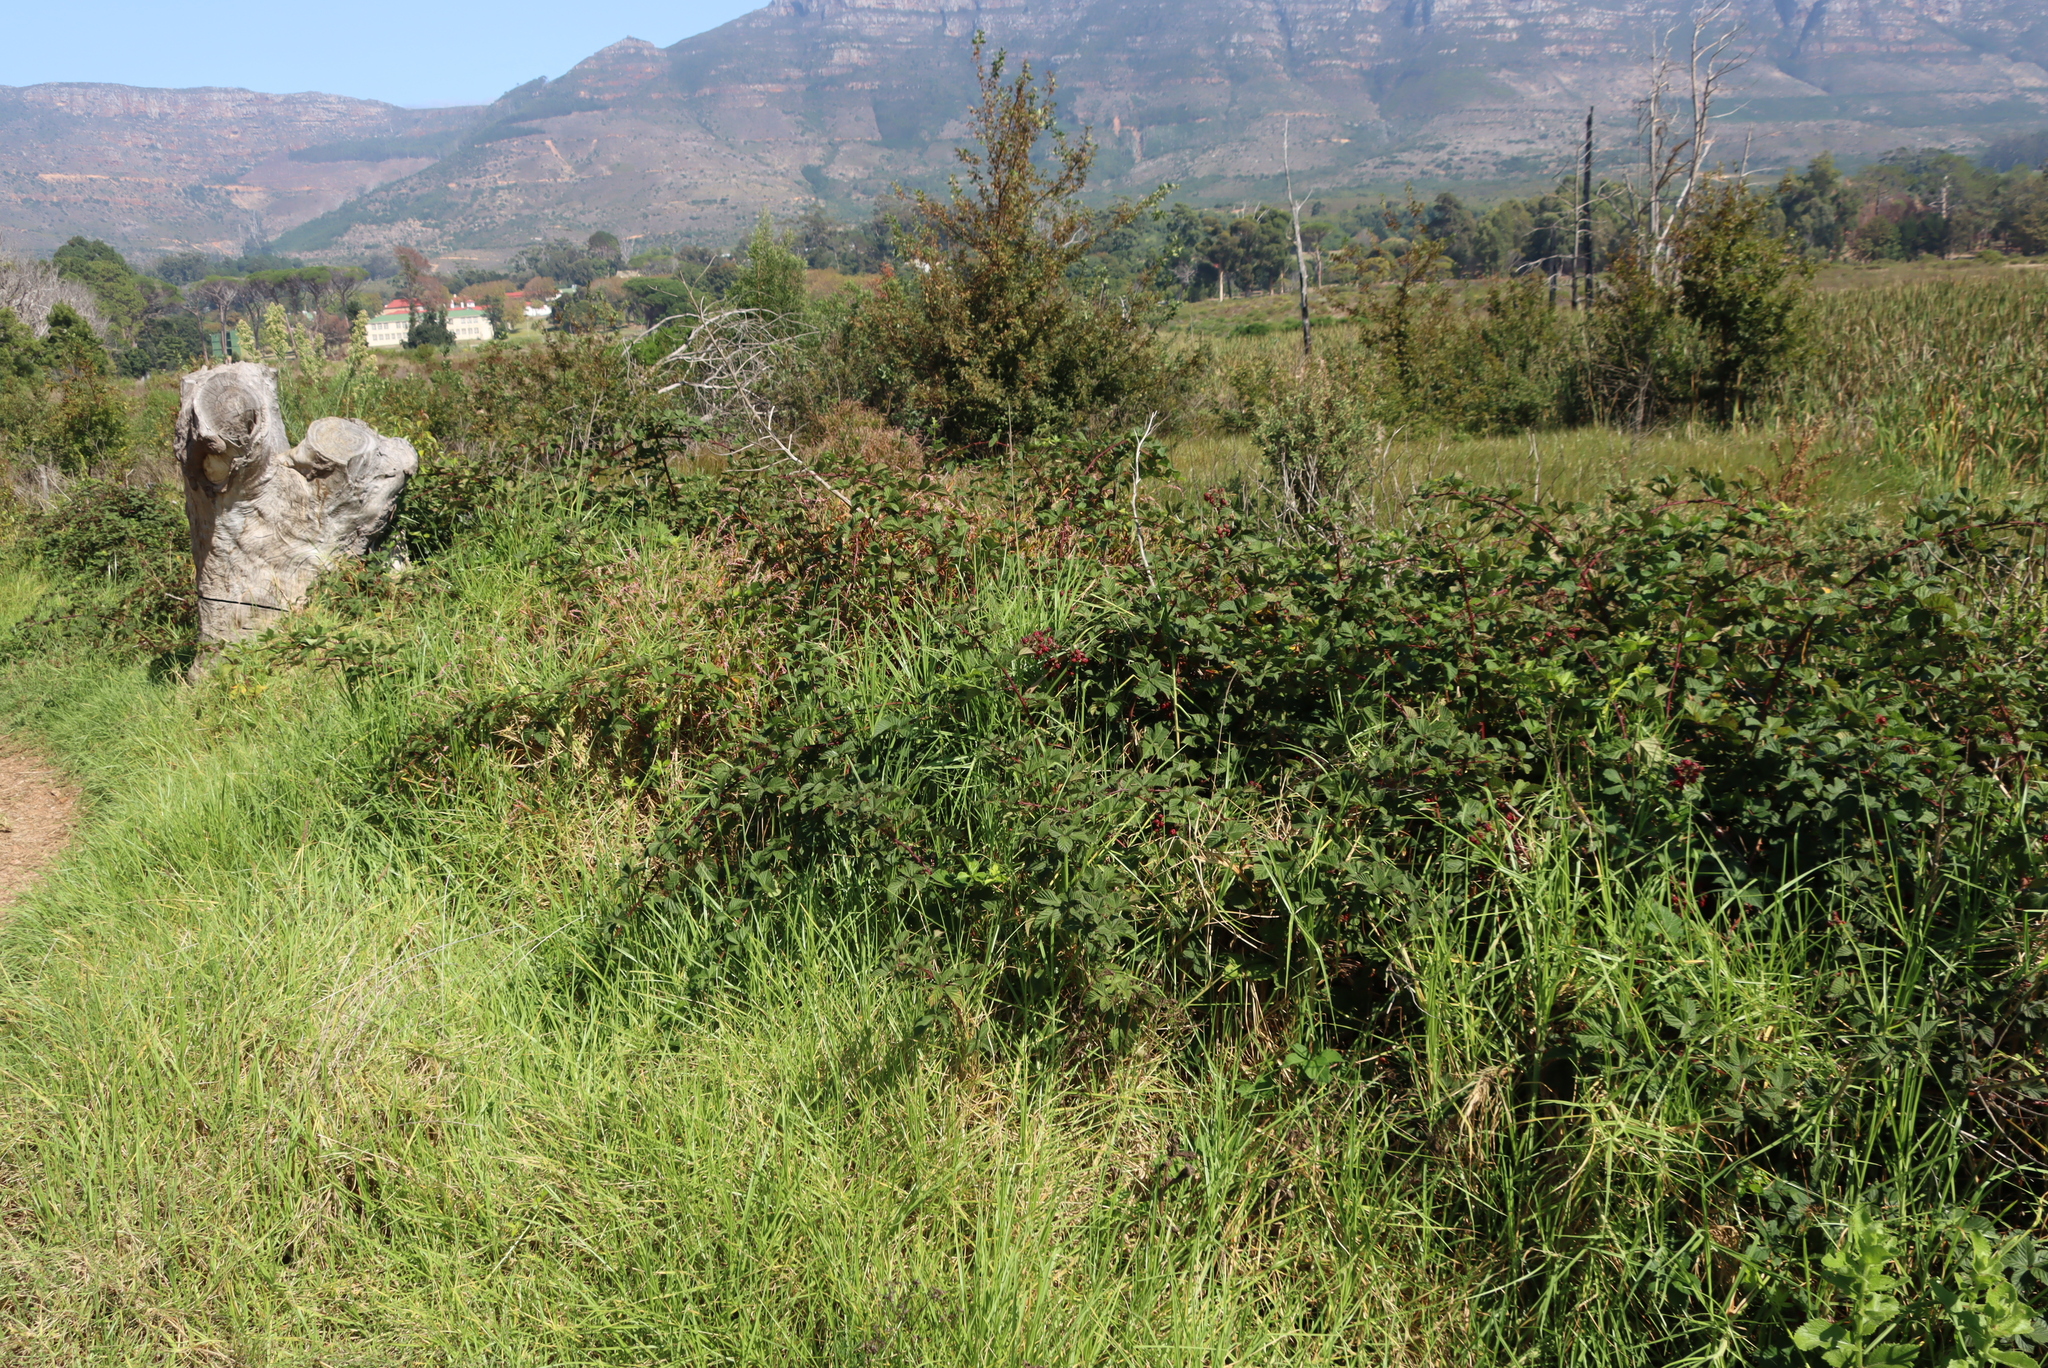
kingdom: Plantae
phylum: Tracheophyta
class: Liliopsida
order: Poales
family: Poaceae
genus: Cenchrus
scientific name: Cenchrus clandestinus
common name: Kikuyugrass
